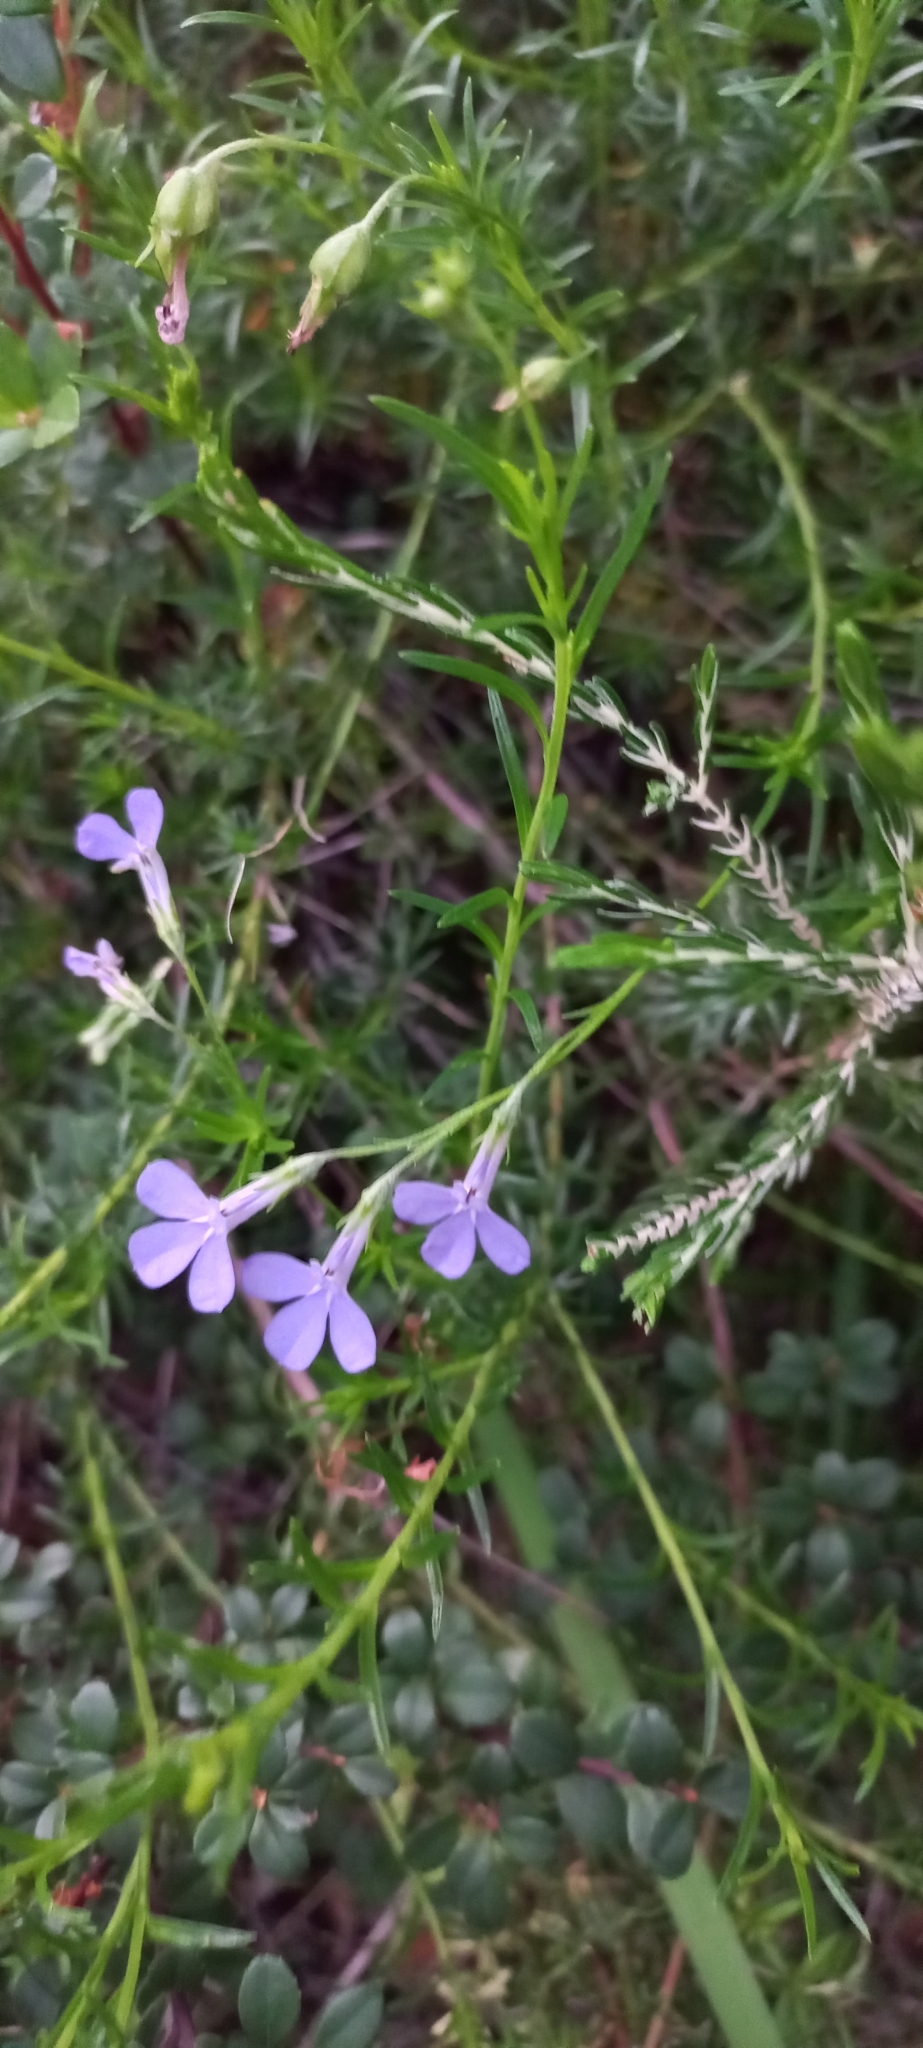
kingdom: Plantae
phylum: Tracheophyta
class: Magnoliopsida
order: Asterales
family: Campanulaceae
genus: Lobelia
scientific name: Lobelia pinifolia
